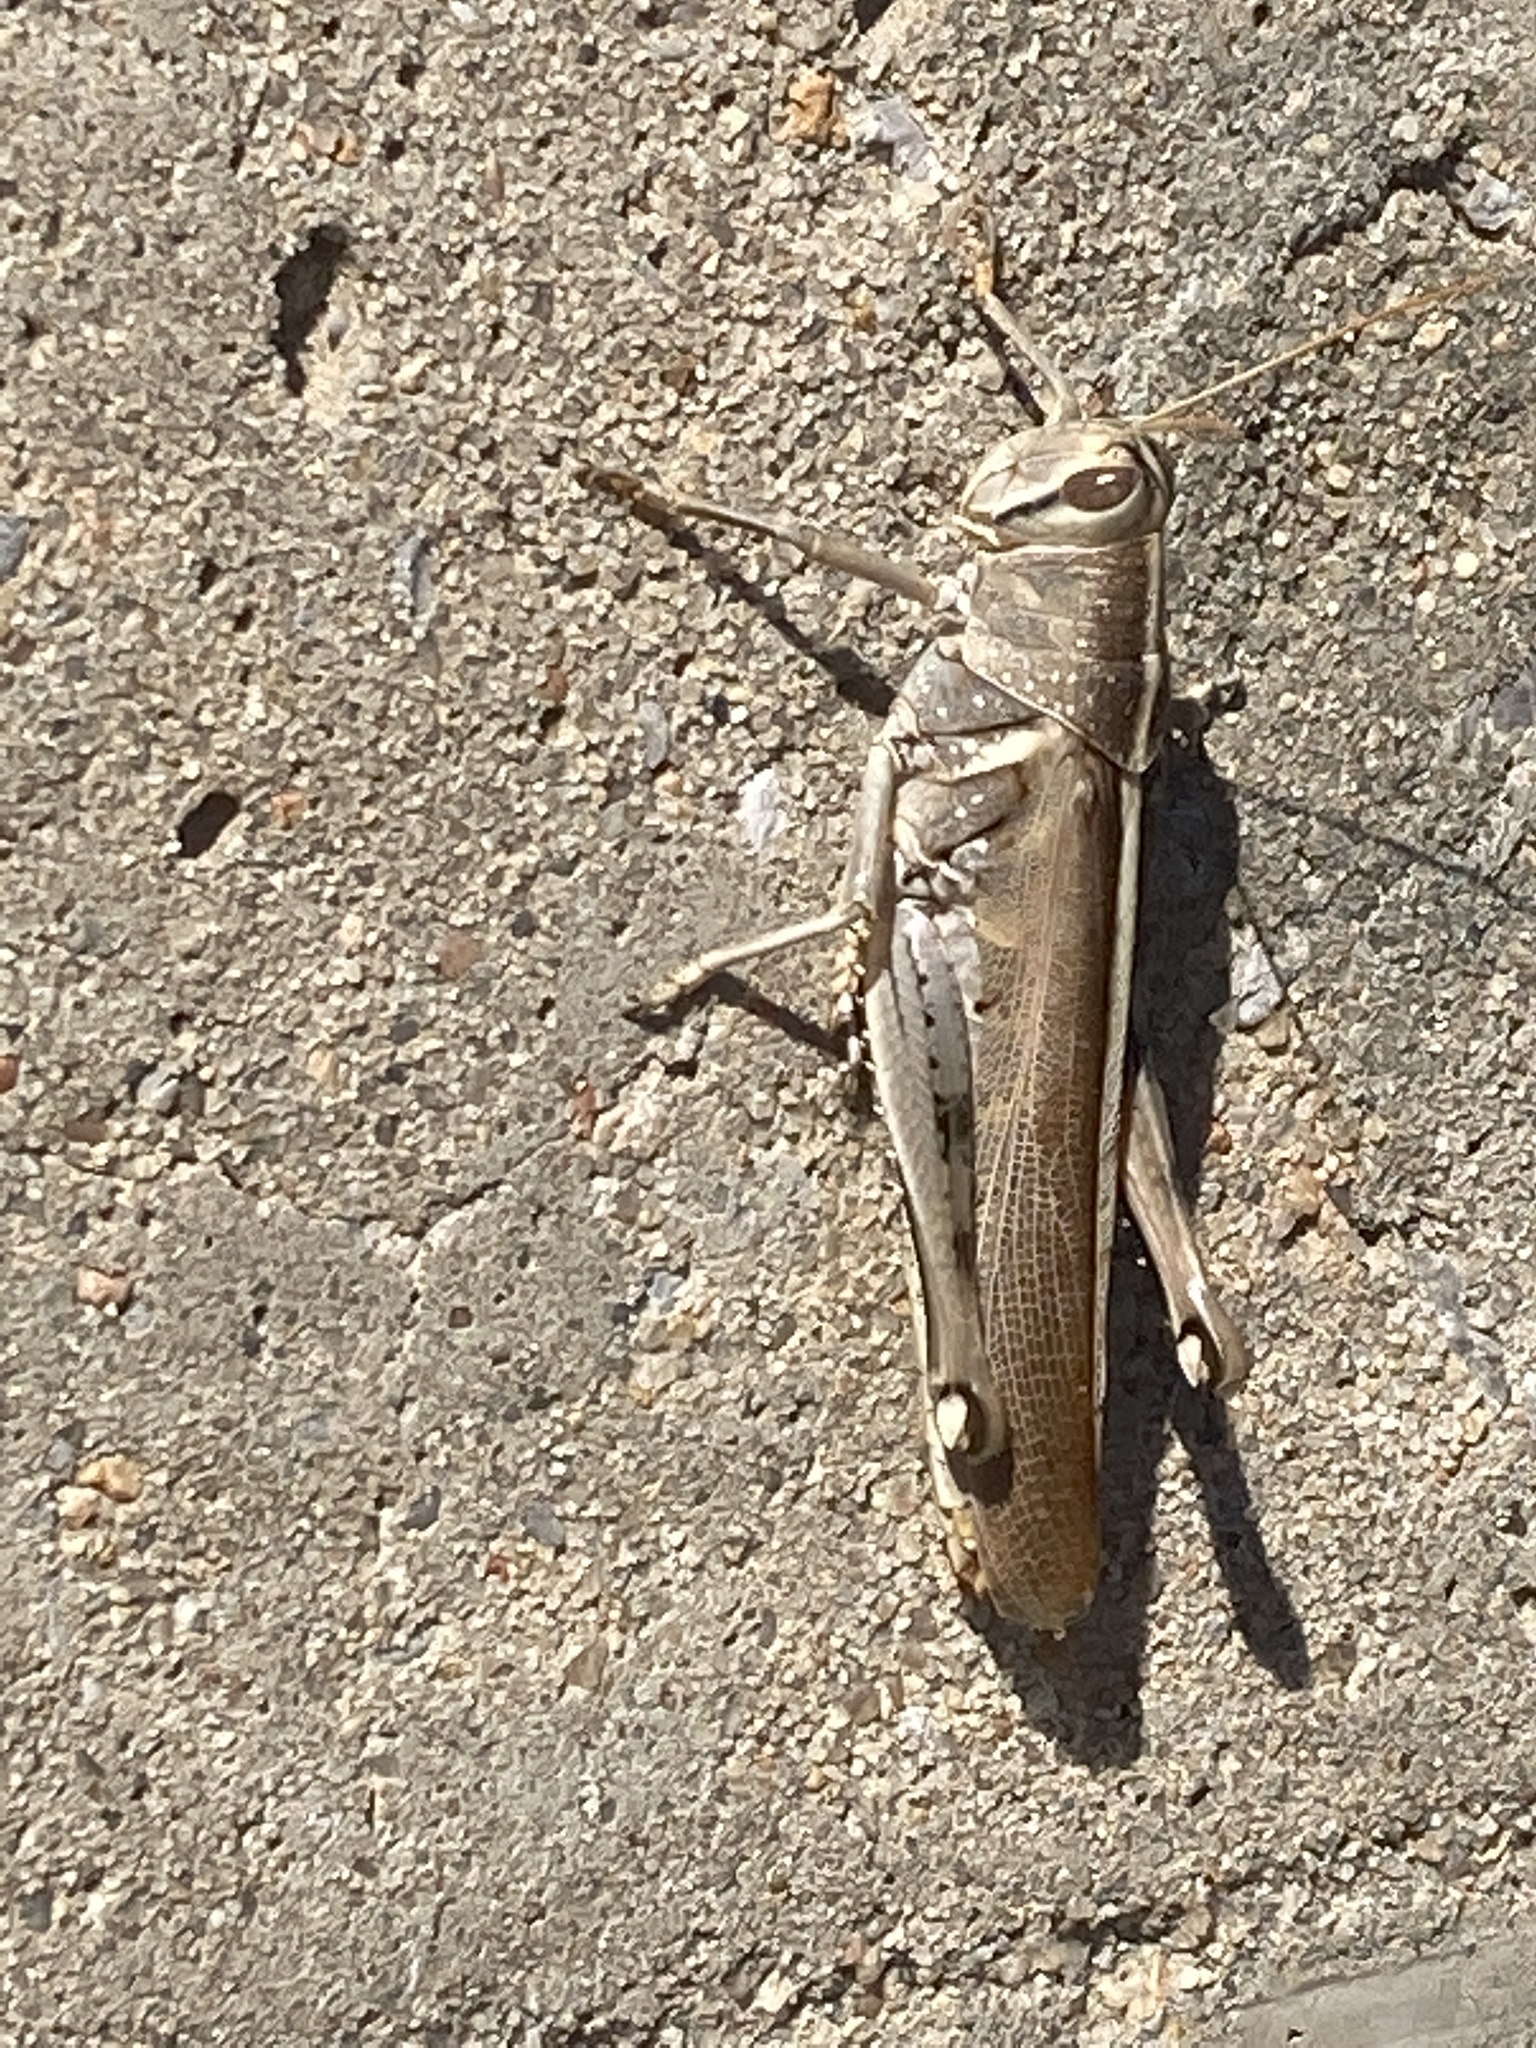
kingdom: Animalia
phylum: Arthropoda
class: Insecta
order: Orthoptera
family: Acrididae
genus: Schistocerca
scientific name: Schistocerca lineata
